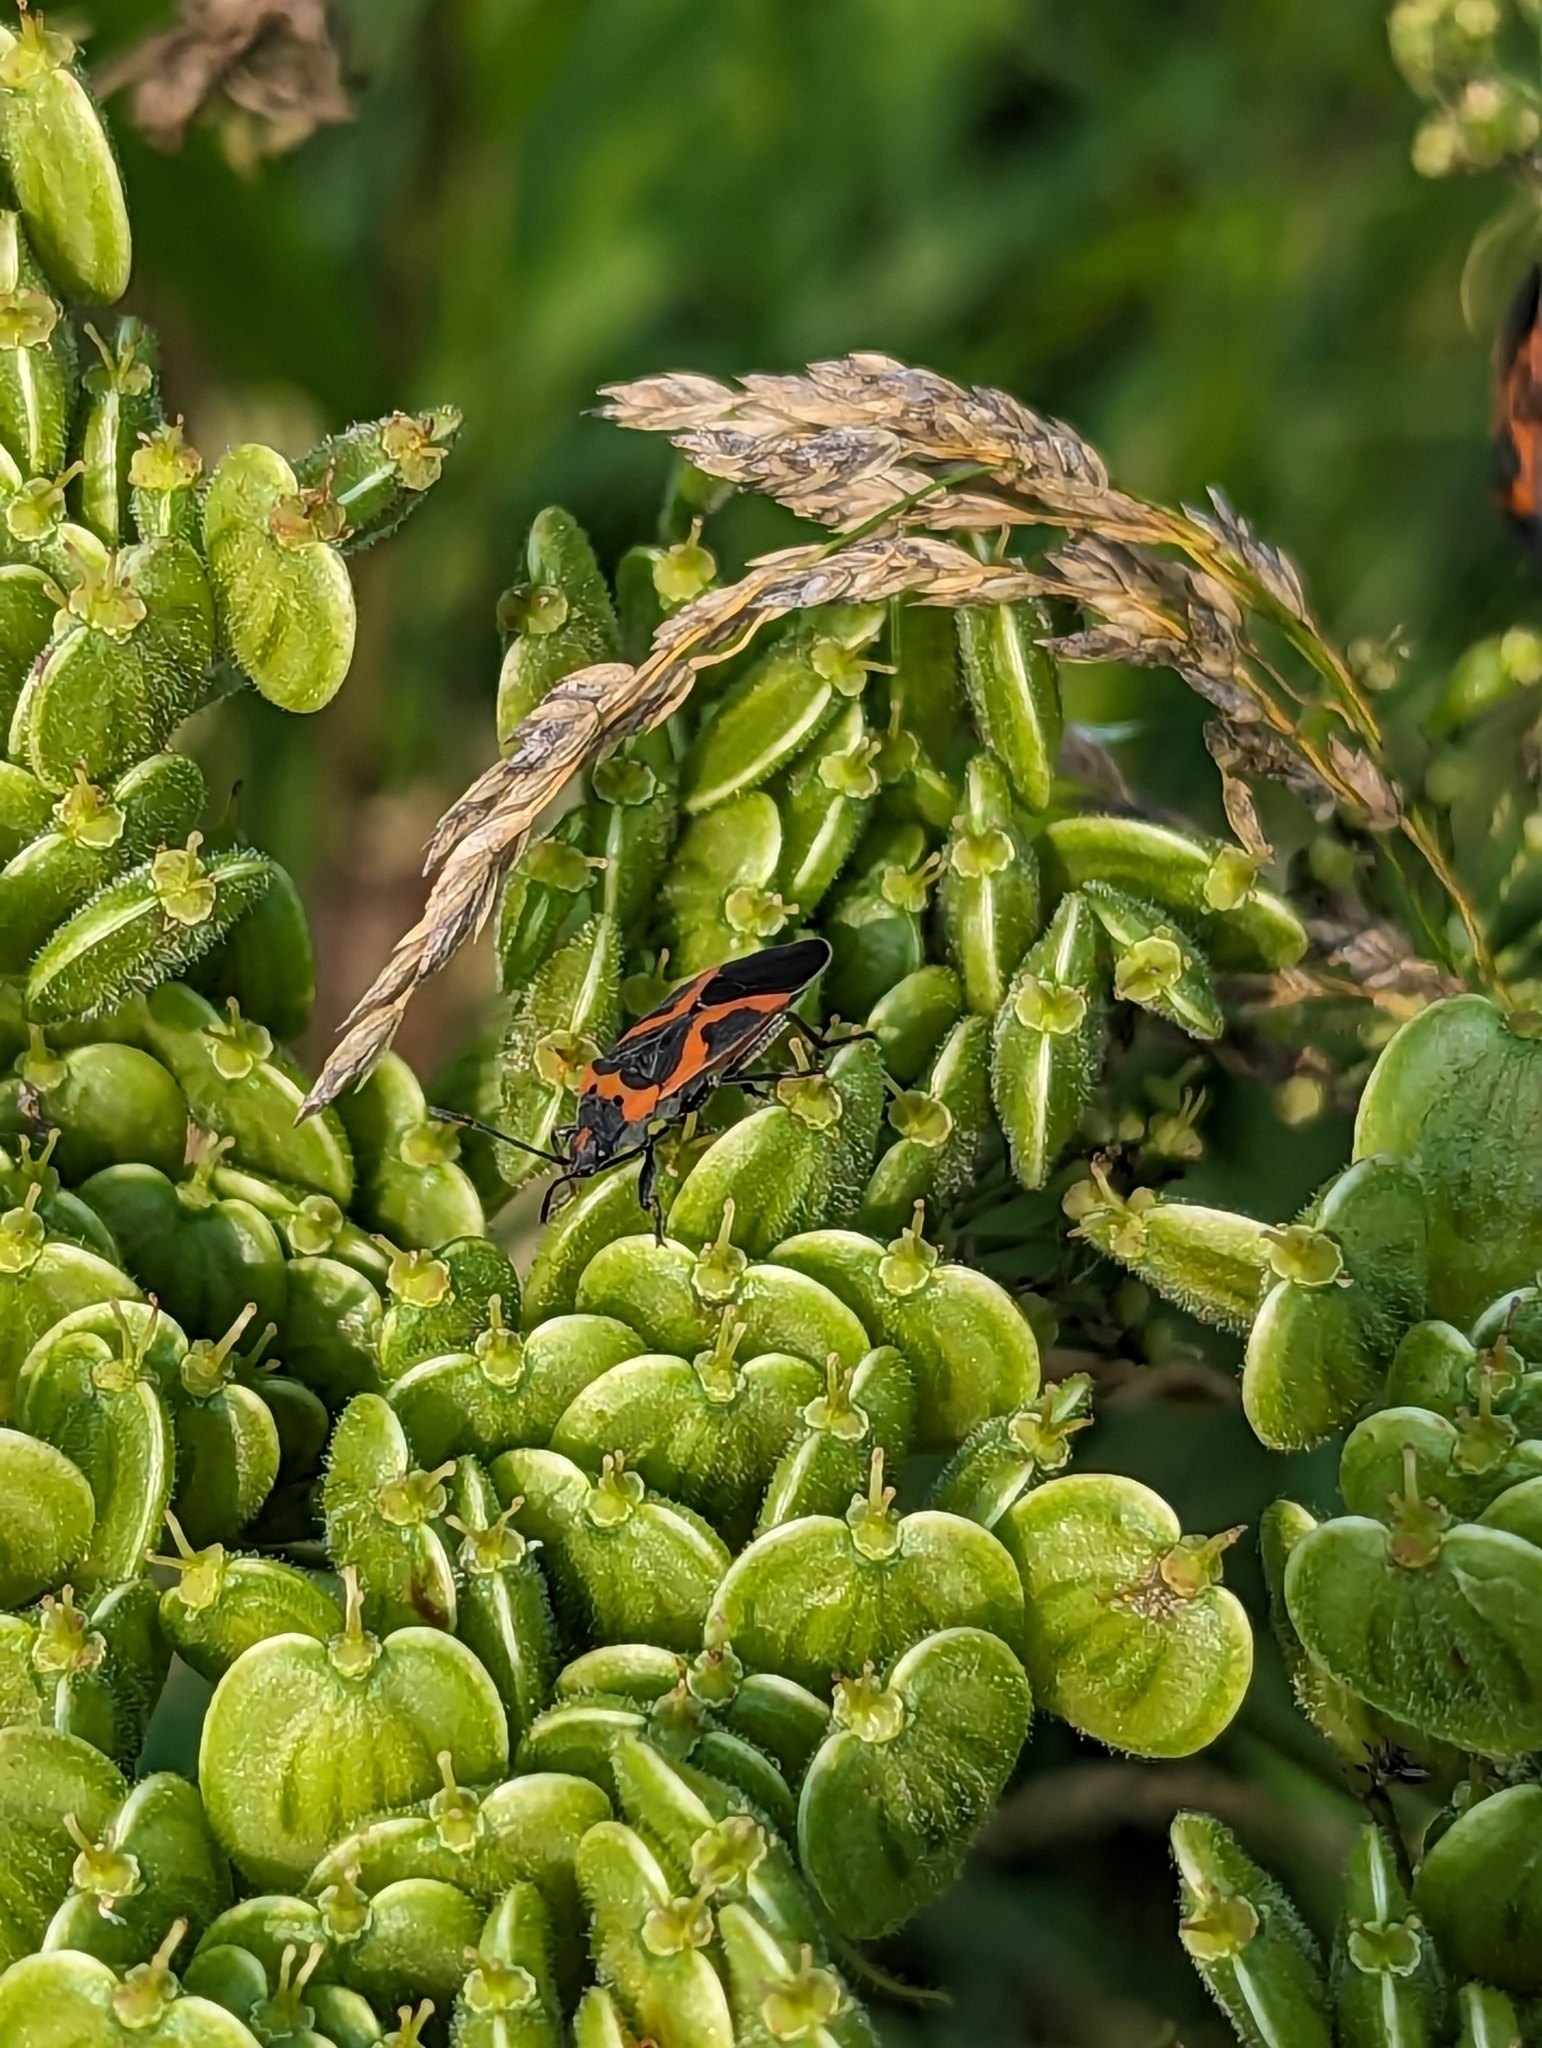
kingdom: Animalia
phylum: Arthropoda
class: Insecta
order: Hemiptera
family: Lygaeidae
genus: Lygaeus
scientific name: Lygaeus kalmii
